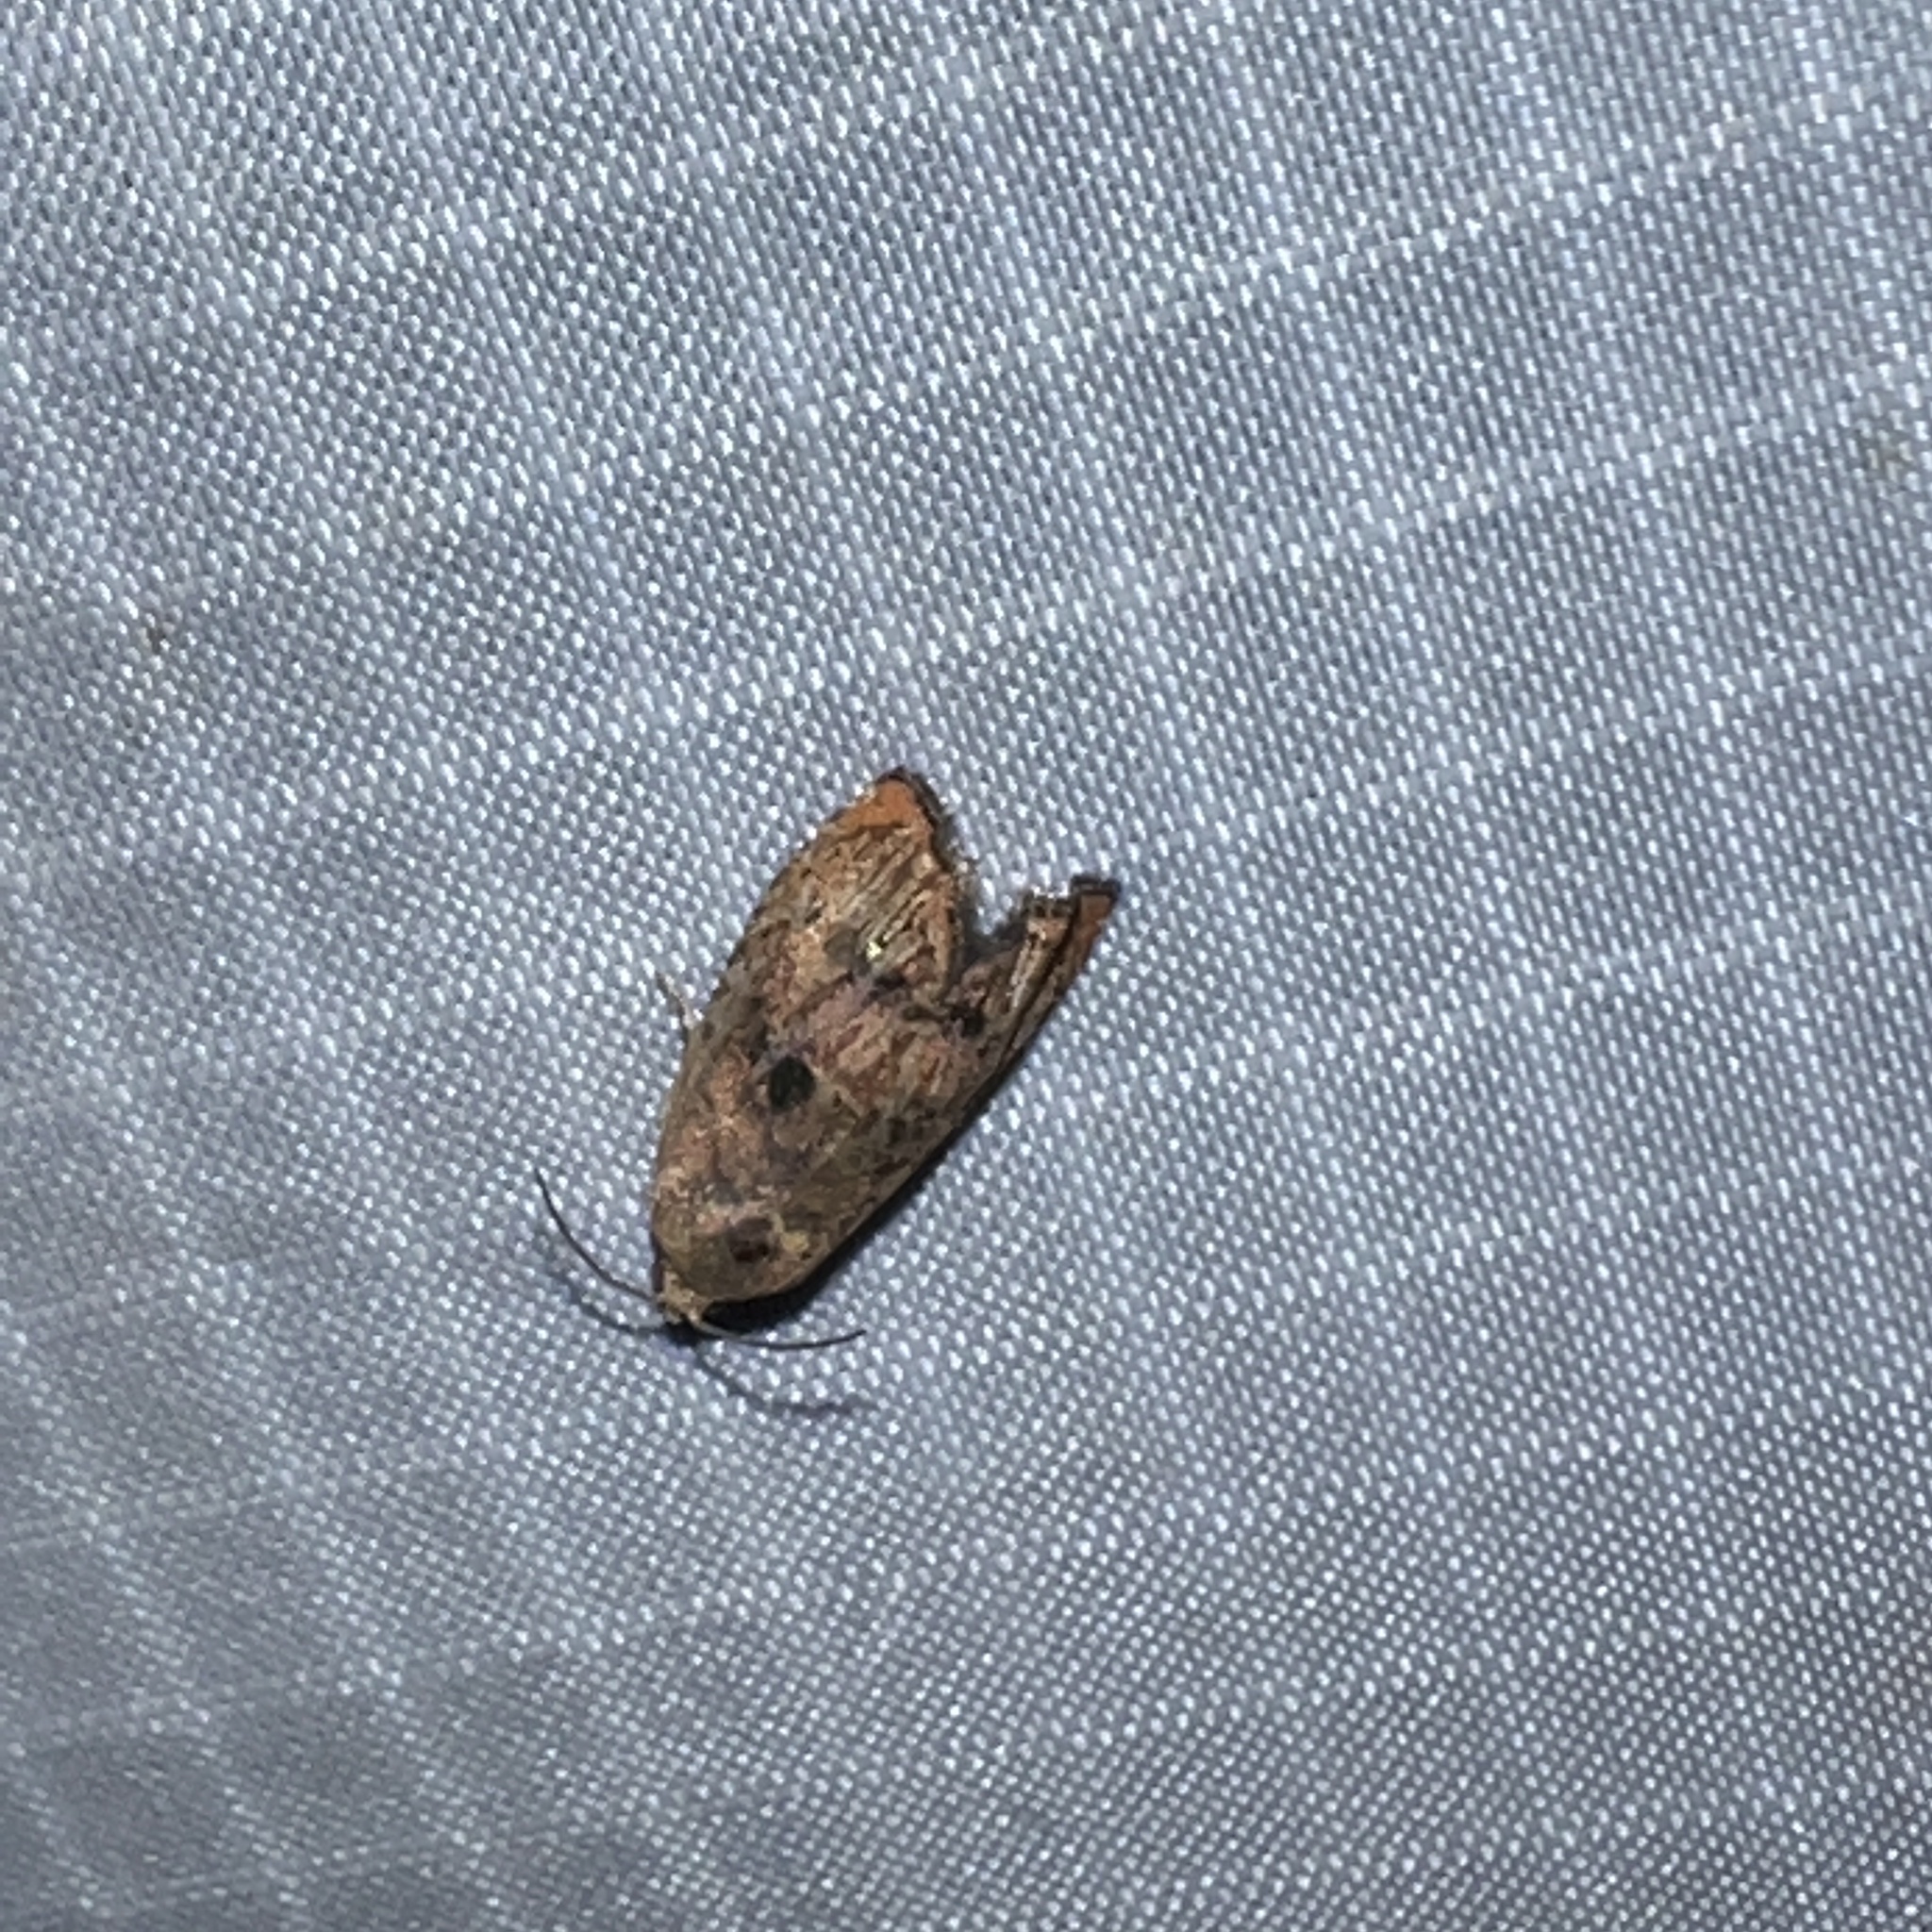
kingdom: Animalia
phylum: Arthropoda
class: Insecta
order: Lepidoptera
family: Tortricidae
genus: Cydia
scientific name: Cydia latiferreana
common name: Filbertworm moth
